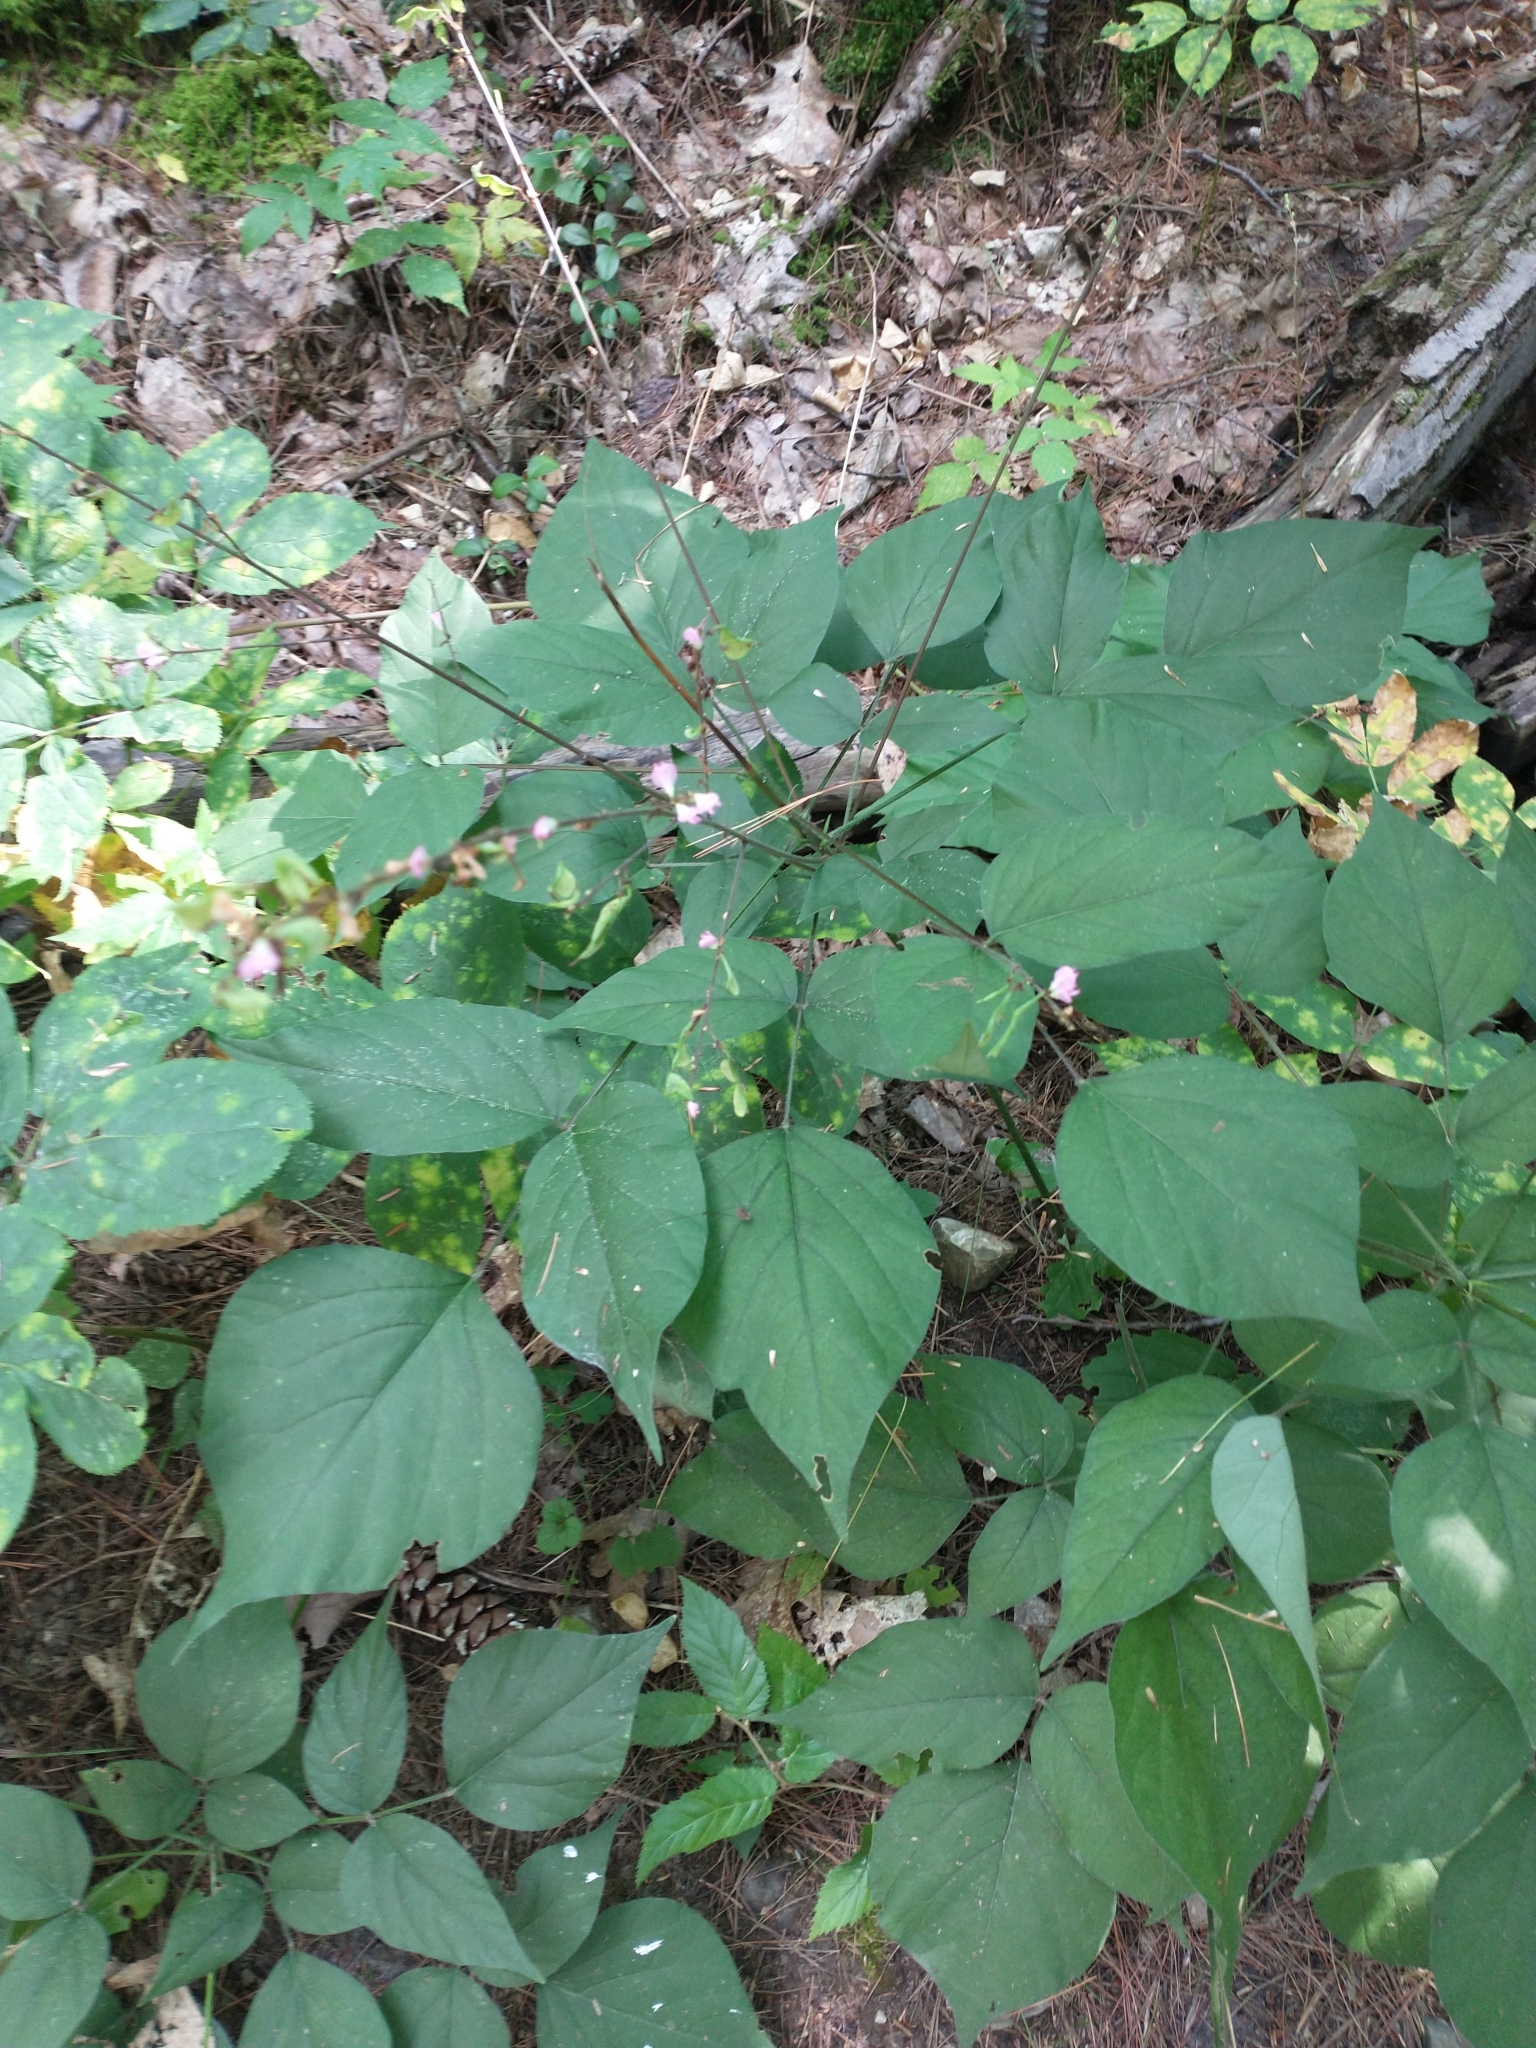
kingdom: Plantae
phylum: Tracheophyta
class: Magnoliopsida
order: Fabales
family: Fabaceae
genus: Hylodesmum
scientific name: Hylodesmum glutinosum
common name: Clustered-leaved tick-trefoil
